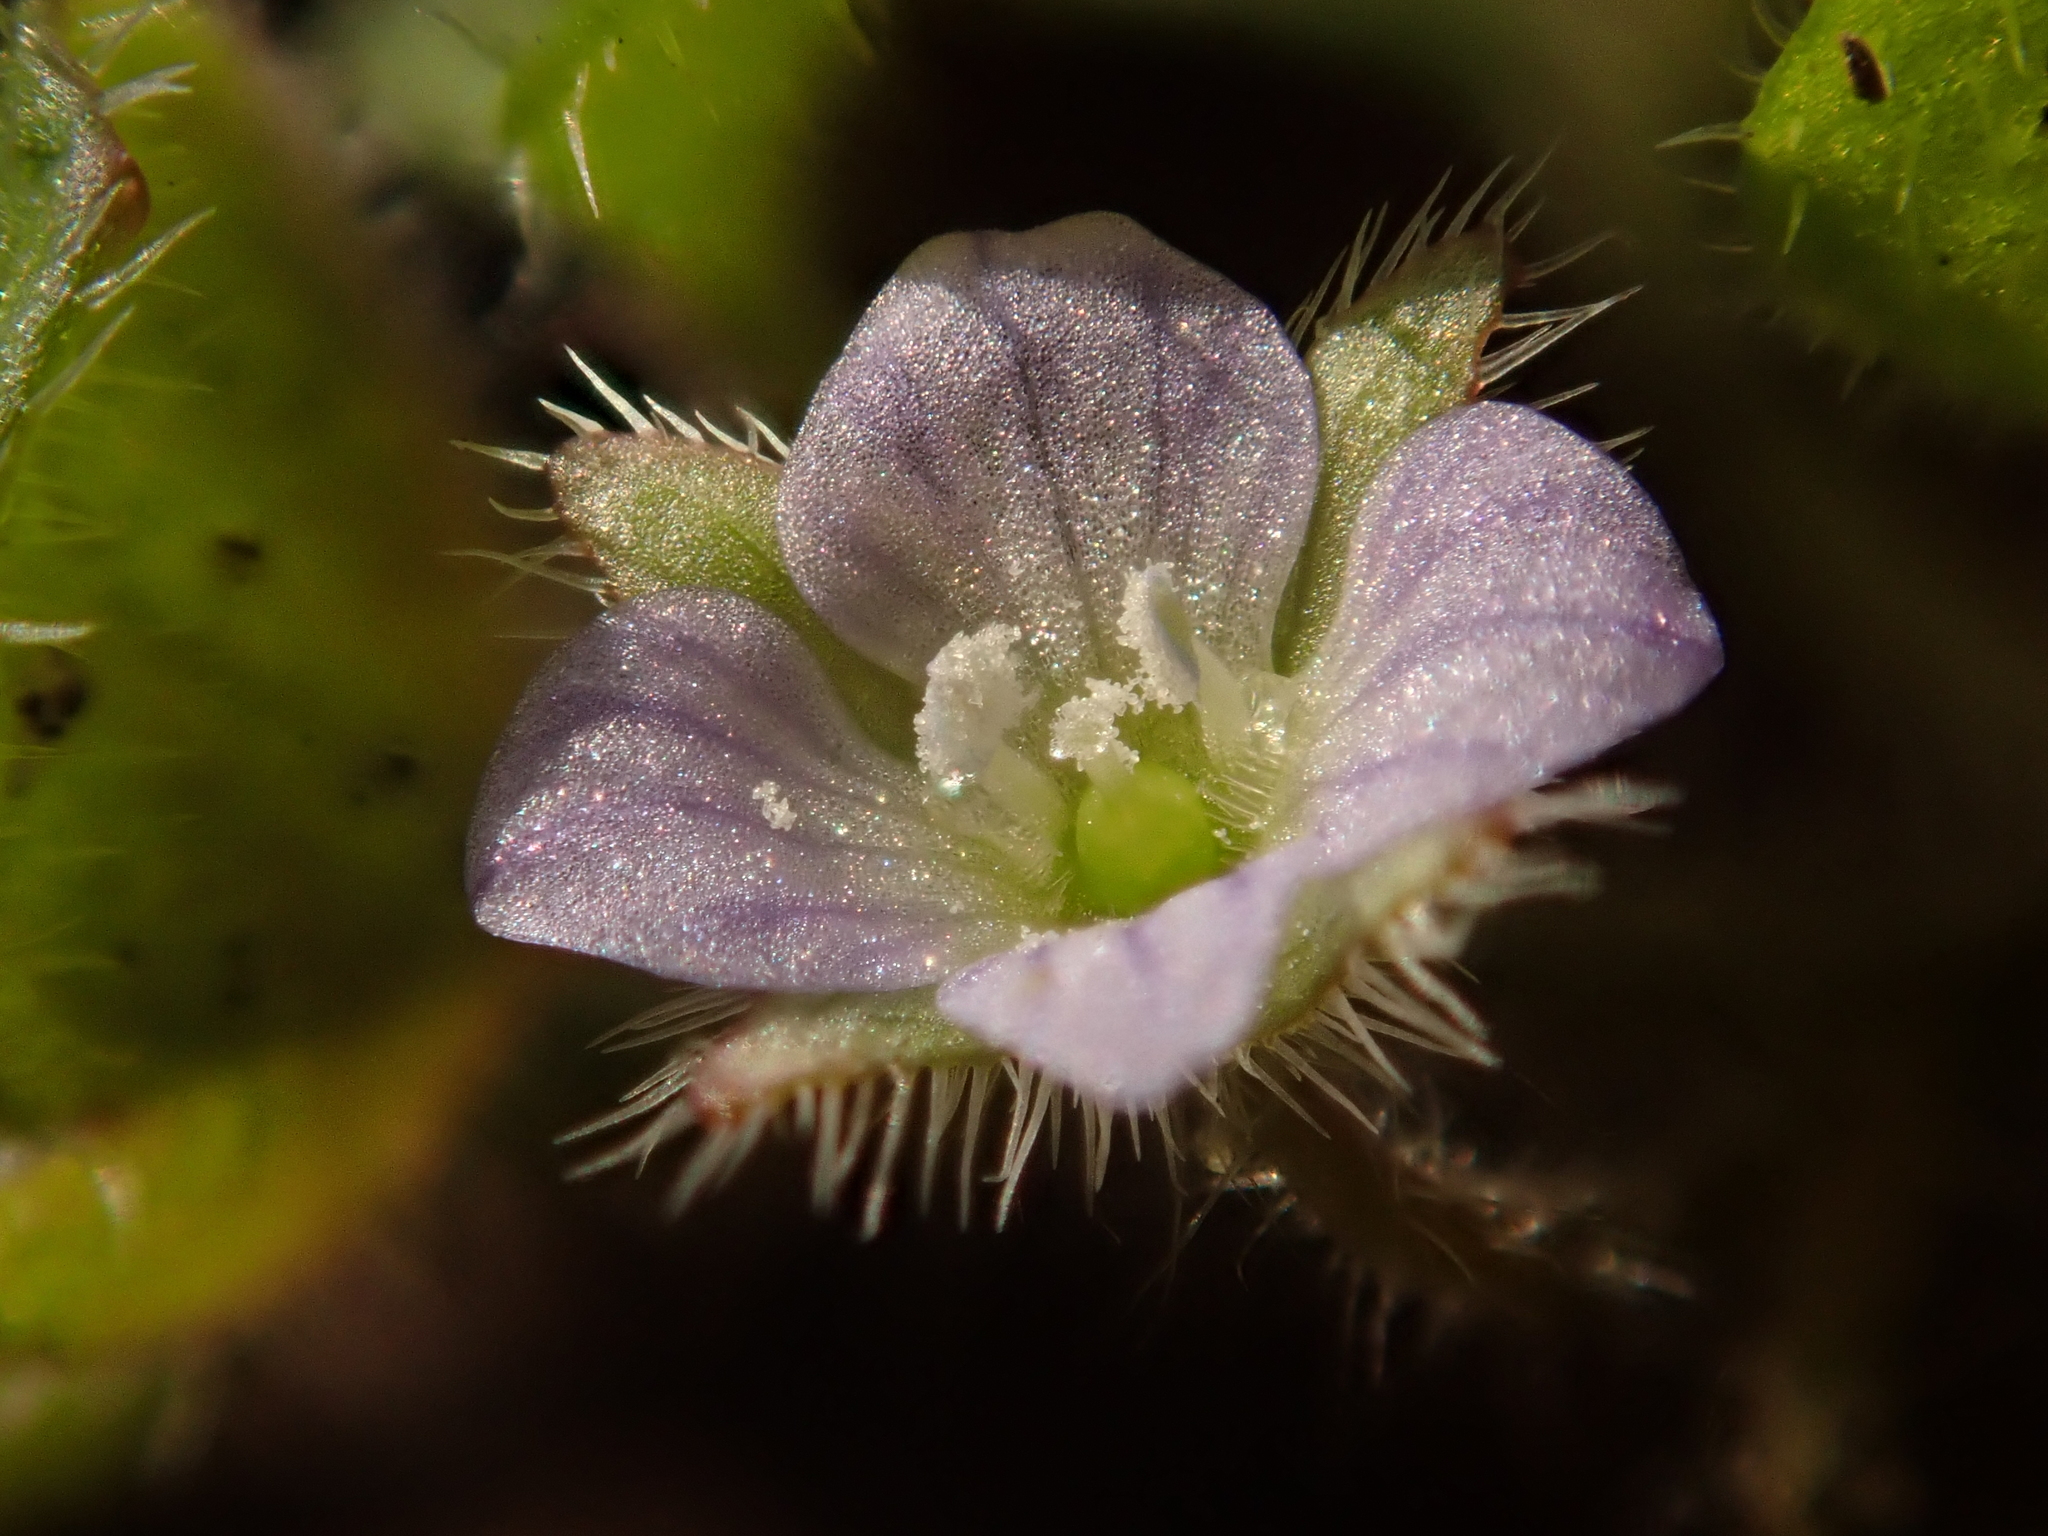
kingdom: Plantae
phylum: Tracheophyta
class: Magnoliopsida
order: Lamiales
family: Plantaginaceae
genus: Veronica
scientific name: Veronica sublobata
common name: False ivy-leaved speedwell
